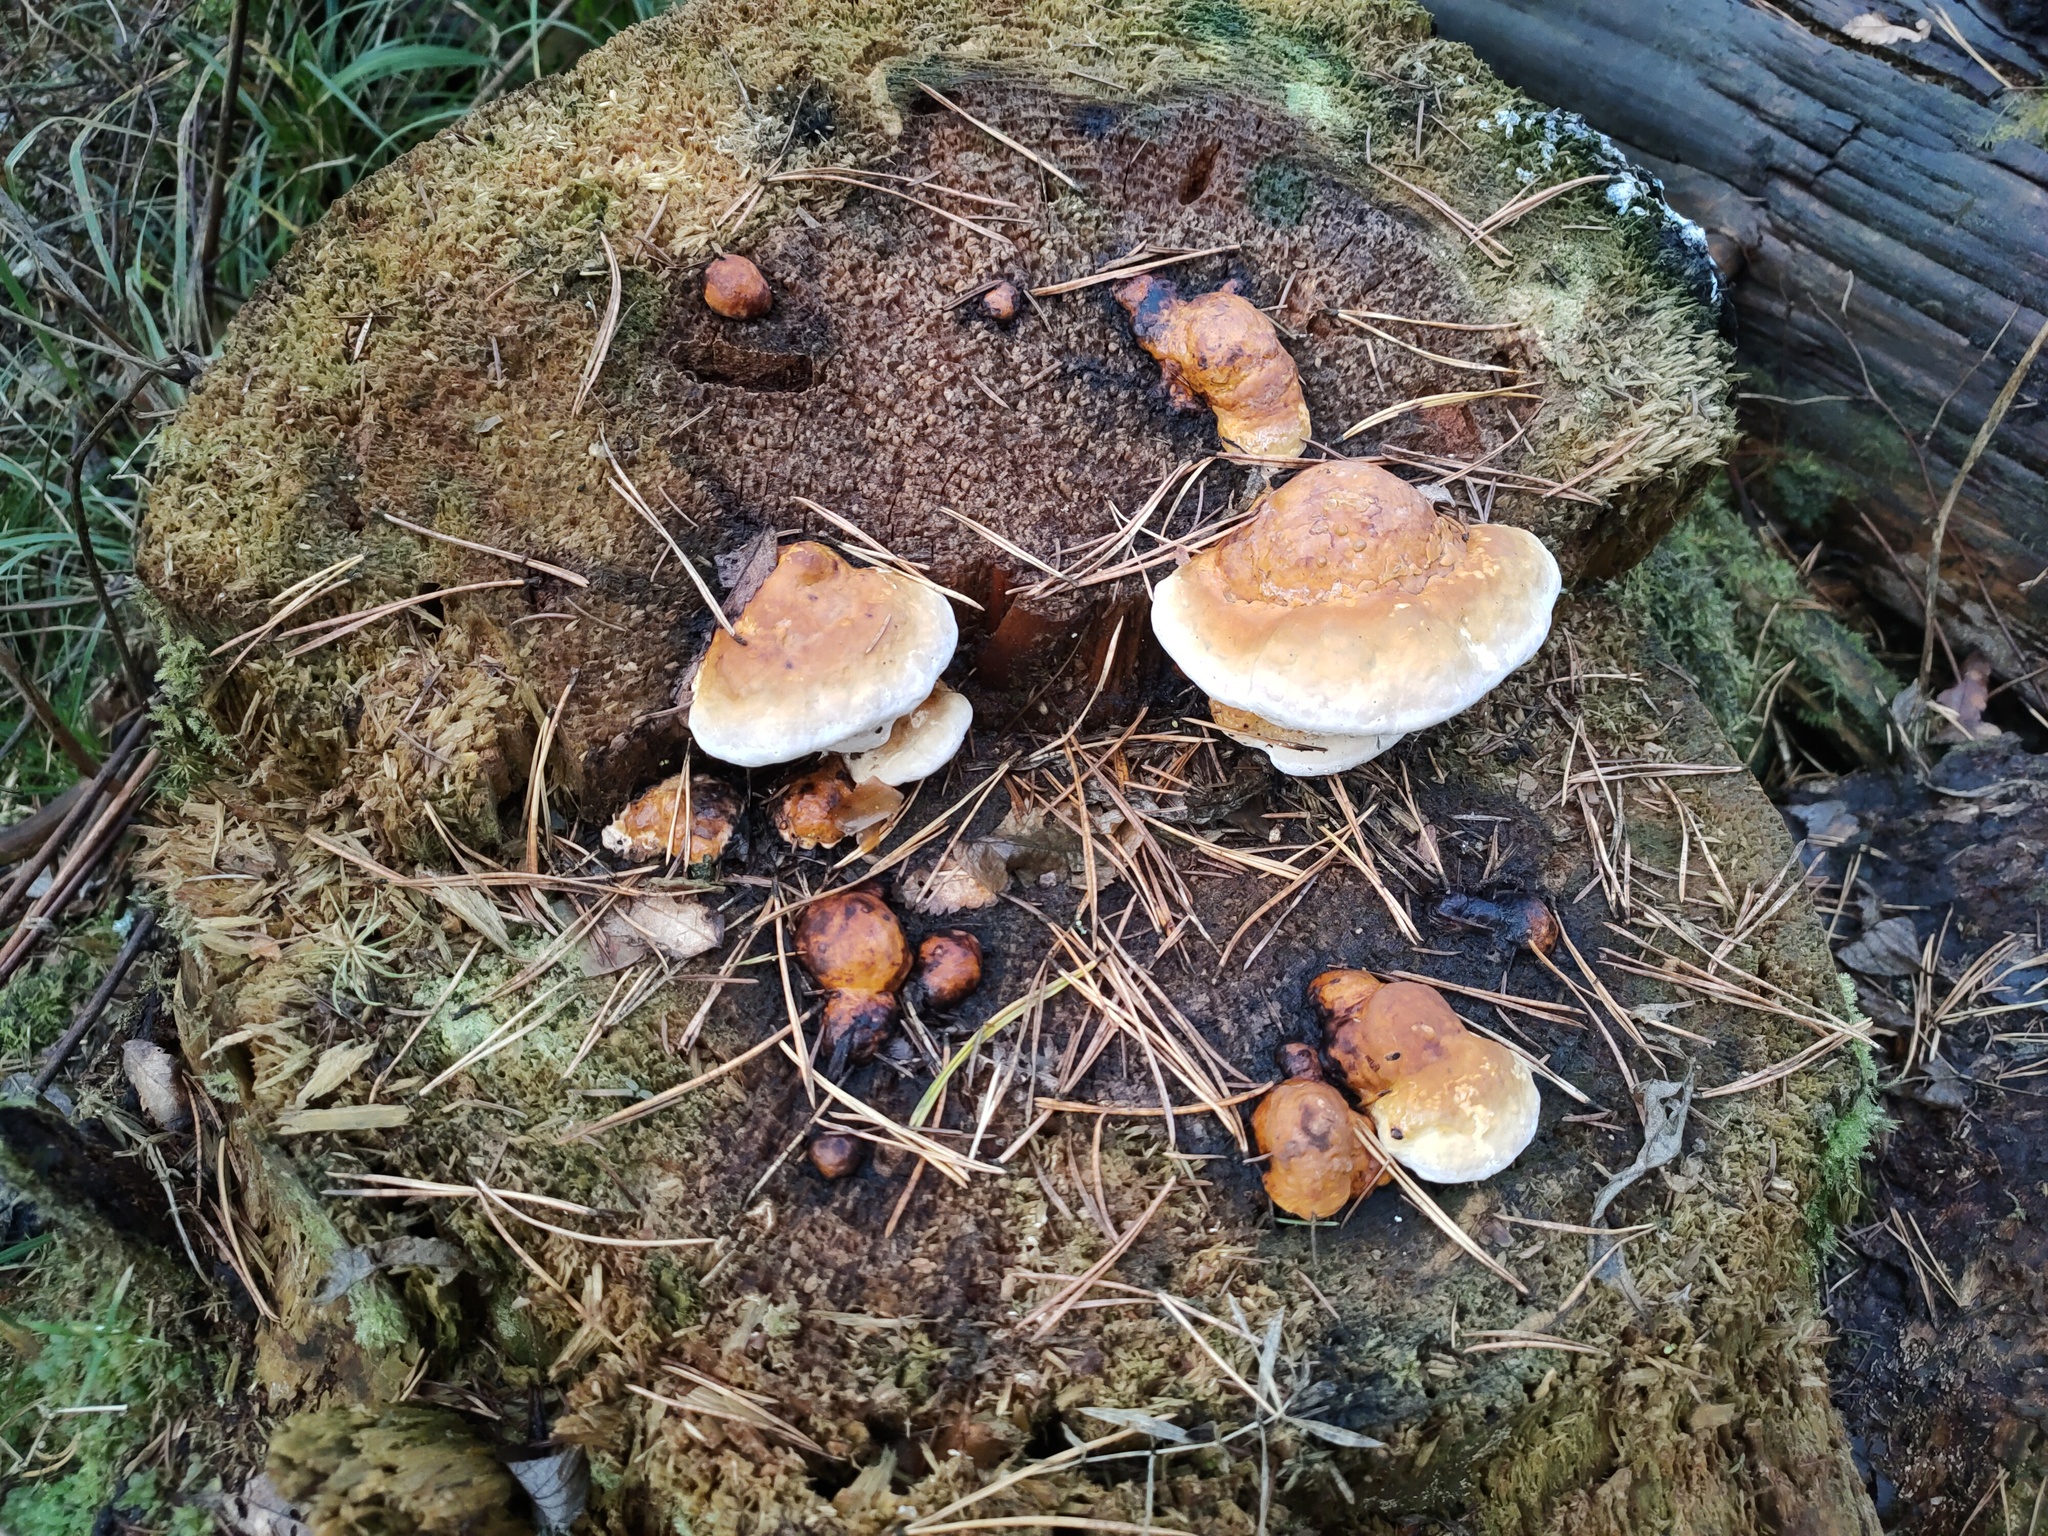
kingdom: Fungi
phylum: Basidiomycota
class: Agaricomycetes
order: Polyporales
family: Fomitopsidaceae
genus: Fomitopsis
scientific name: Fomitopsis pinicola
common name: Red-belted bracket
